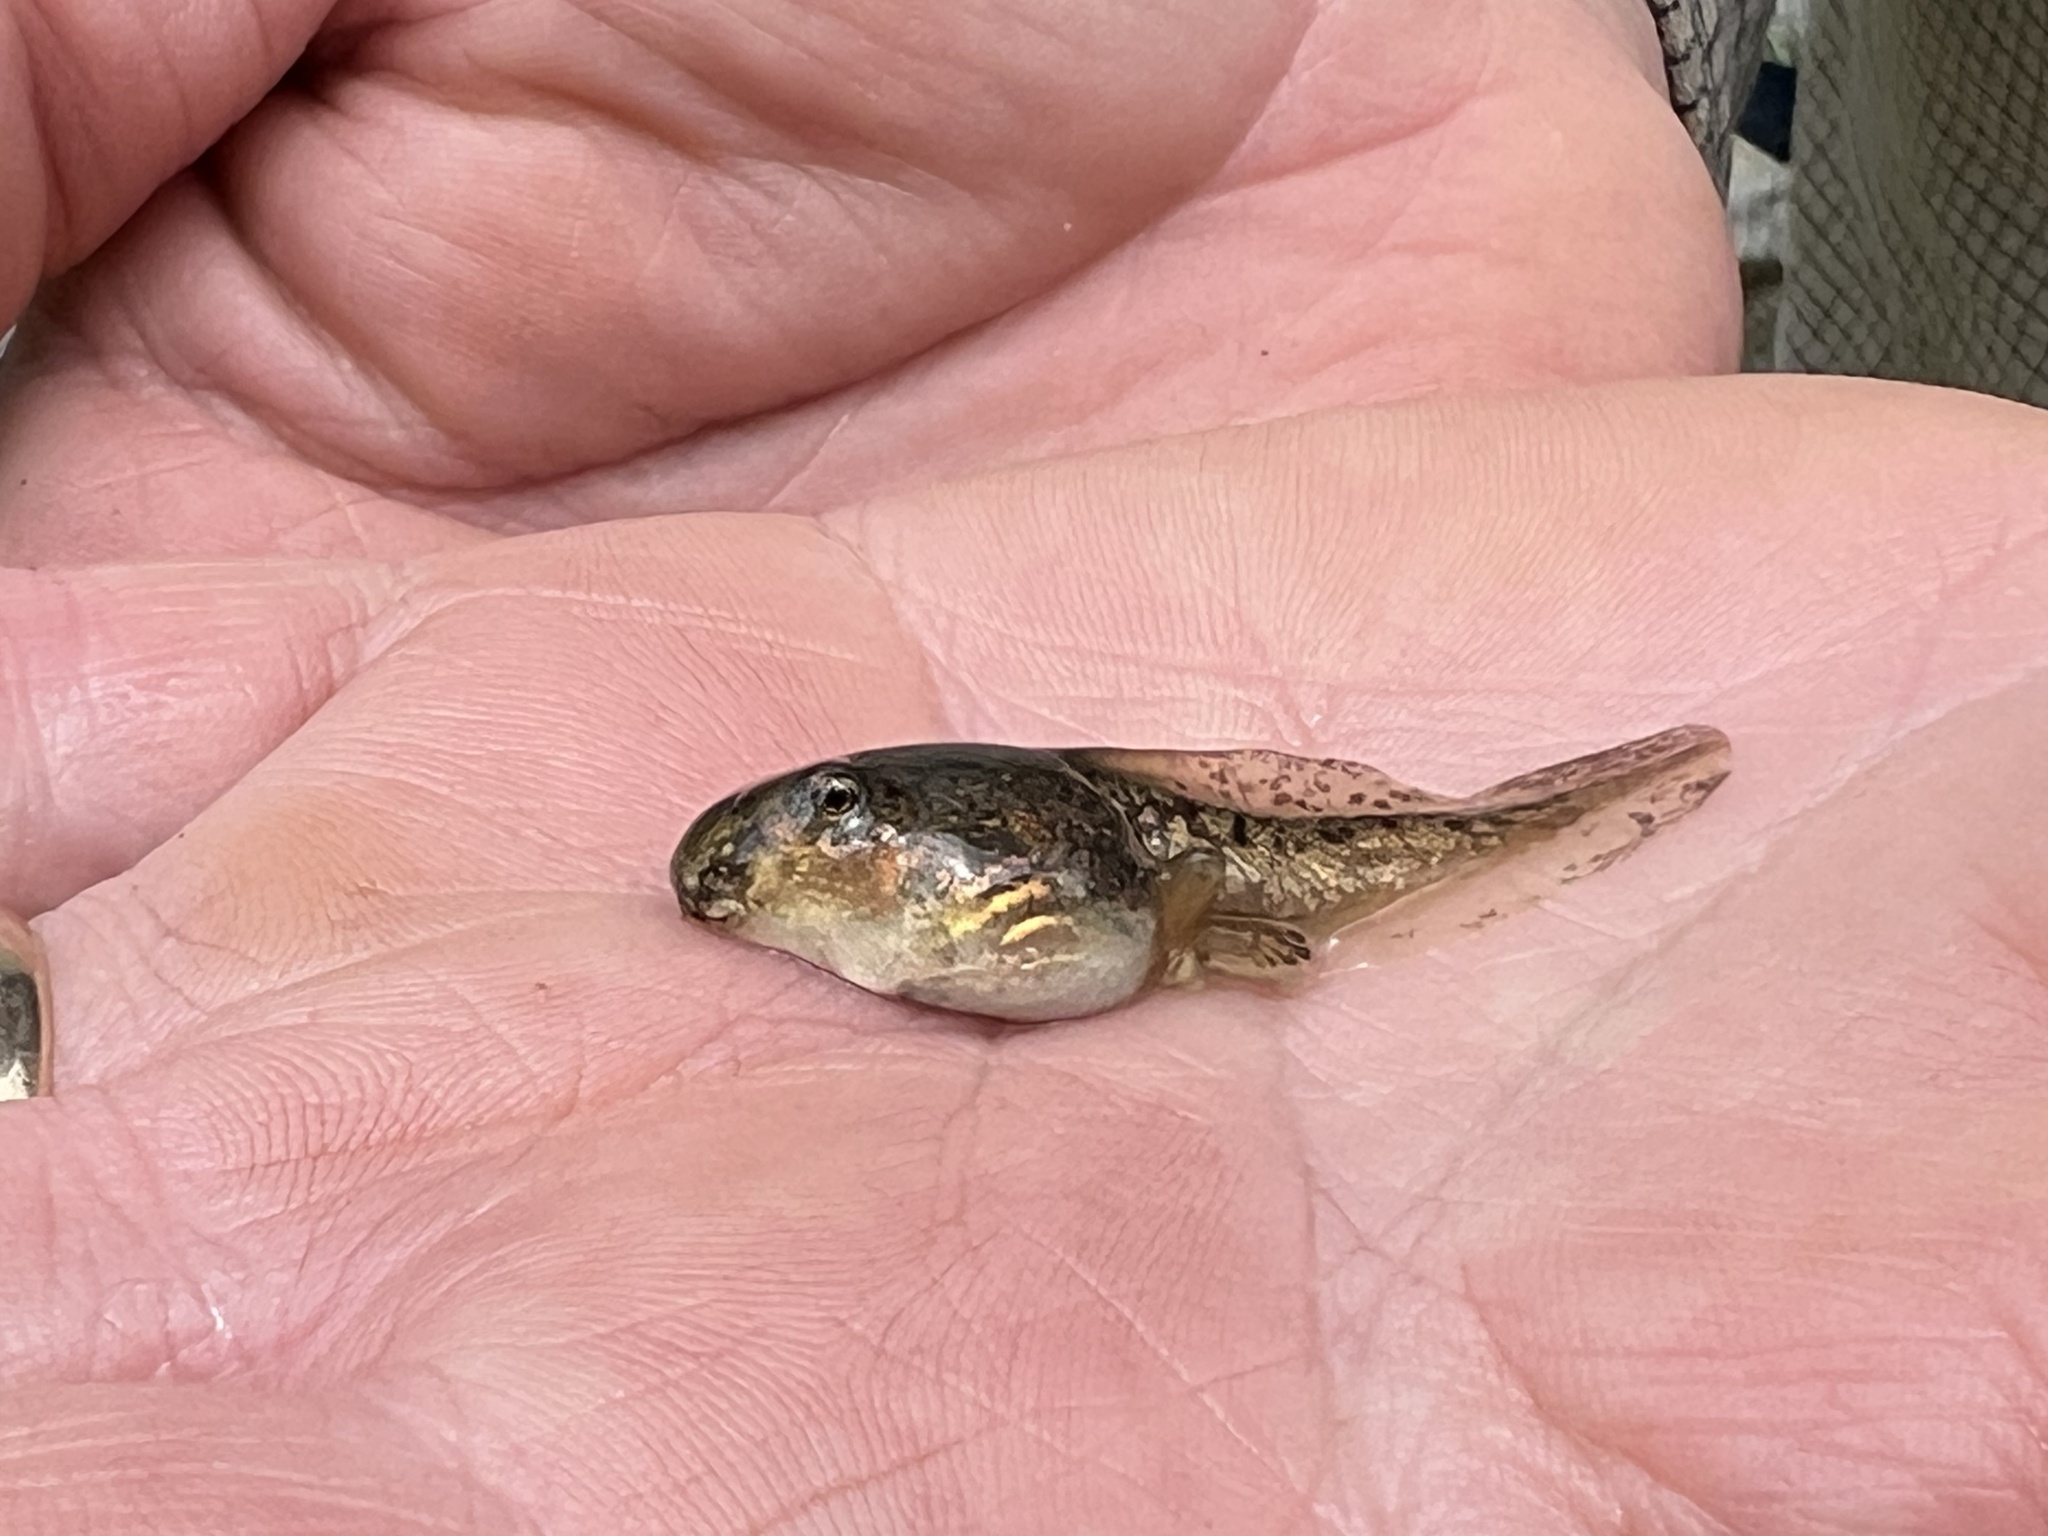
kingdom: Animalia
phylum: Chordata
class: Amphibia
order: Anura
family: Hylidae
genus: Dryophytes
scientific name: Dryophytes arenicolor
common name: Canyon treefrog
